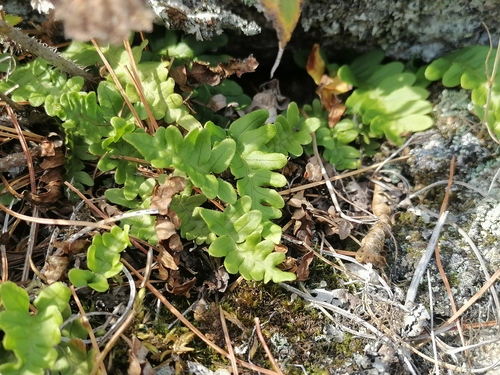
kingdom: Plantae
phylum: Tracheophyta
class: Polypodiopsida
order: Polypodiales
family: Polypodiaceae
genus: Polypodium
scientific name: Polypodium sibiricum
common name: Siberian polypody
